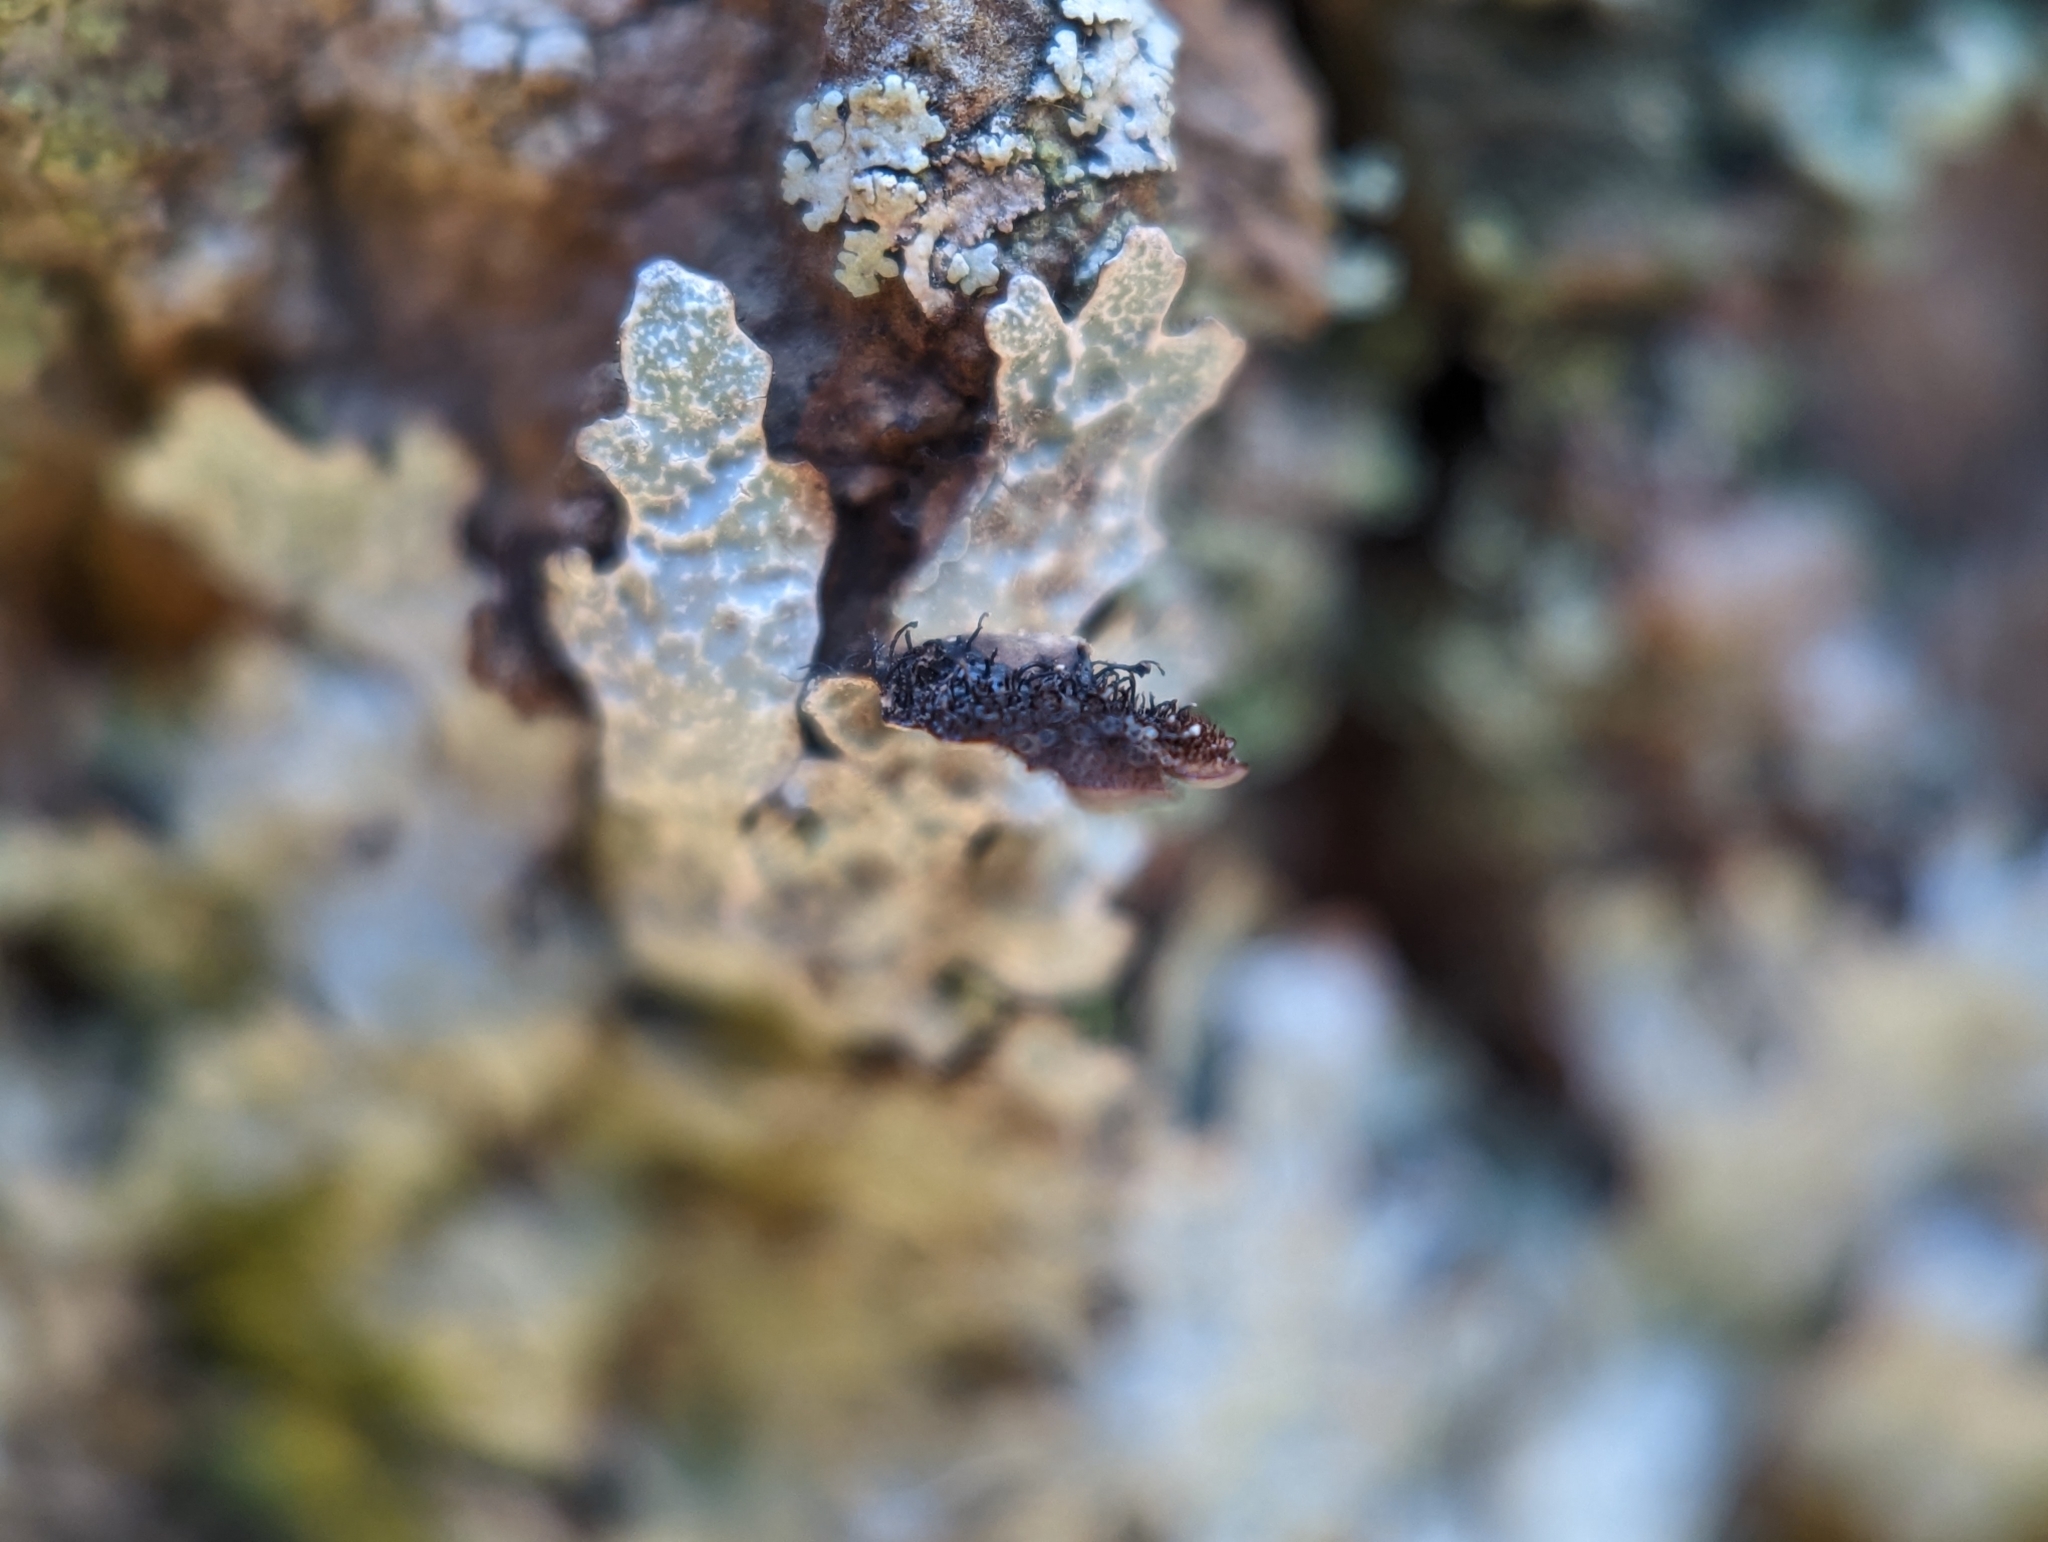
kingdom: Fungi
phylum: Ascomycota
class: Lecanoromycetes
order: Lecanorales
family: Parmeliaceae
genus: Parmelia
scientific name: Parmelia sulcata
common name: Netted shield lichen
